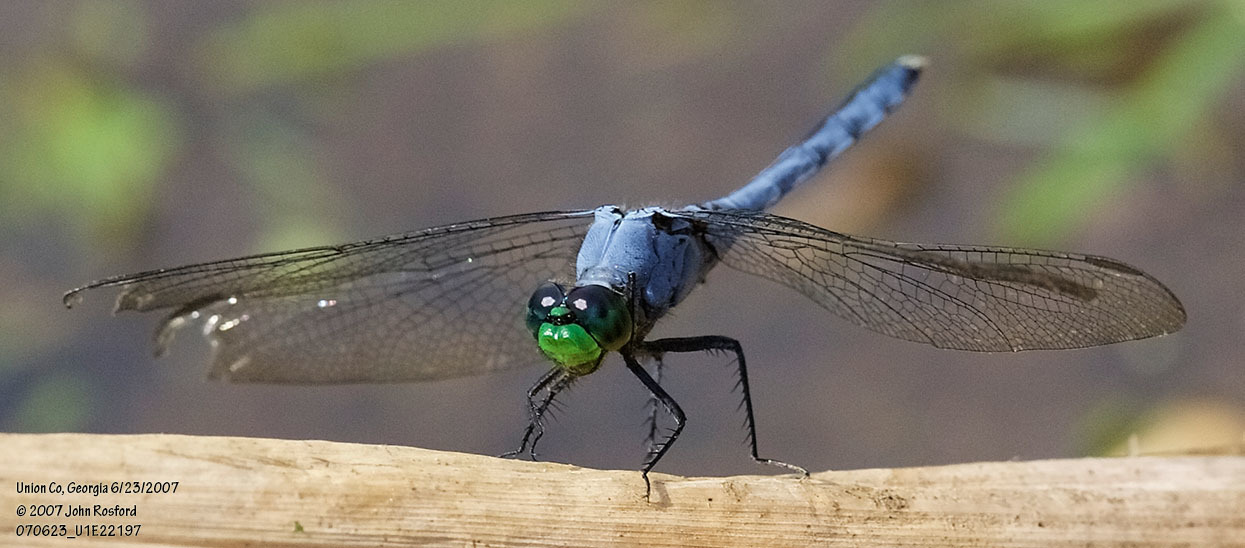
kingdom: Animalia
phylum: Arthropoda
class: Insecta
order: Odonata
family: Libellulidae
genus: Erythemis
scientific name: Erythemis simplicicollis
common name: Eastern pondhawk
